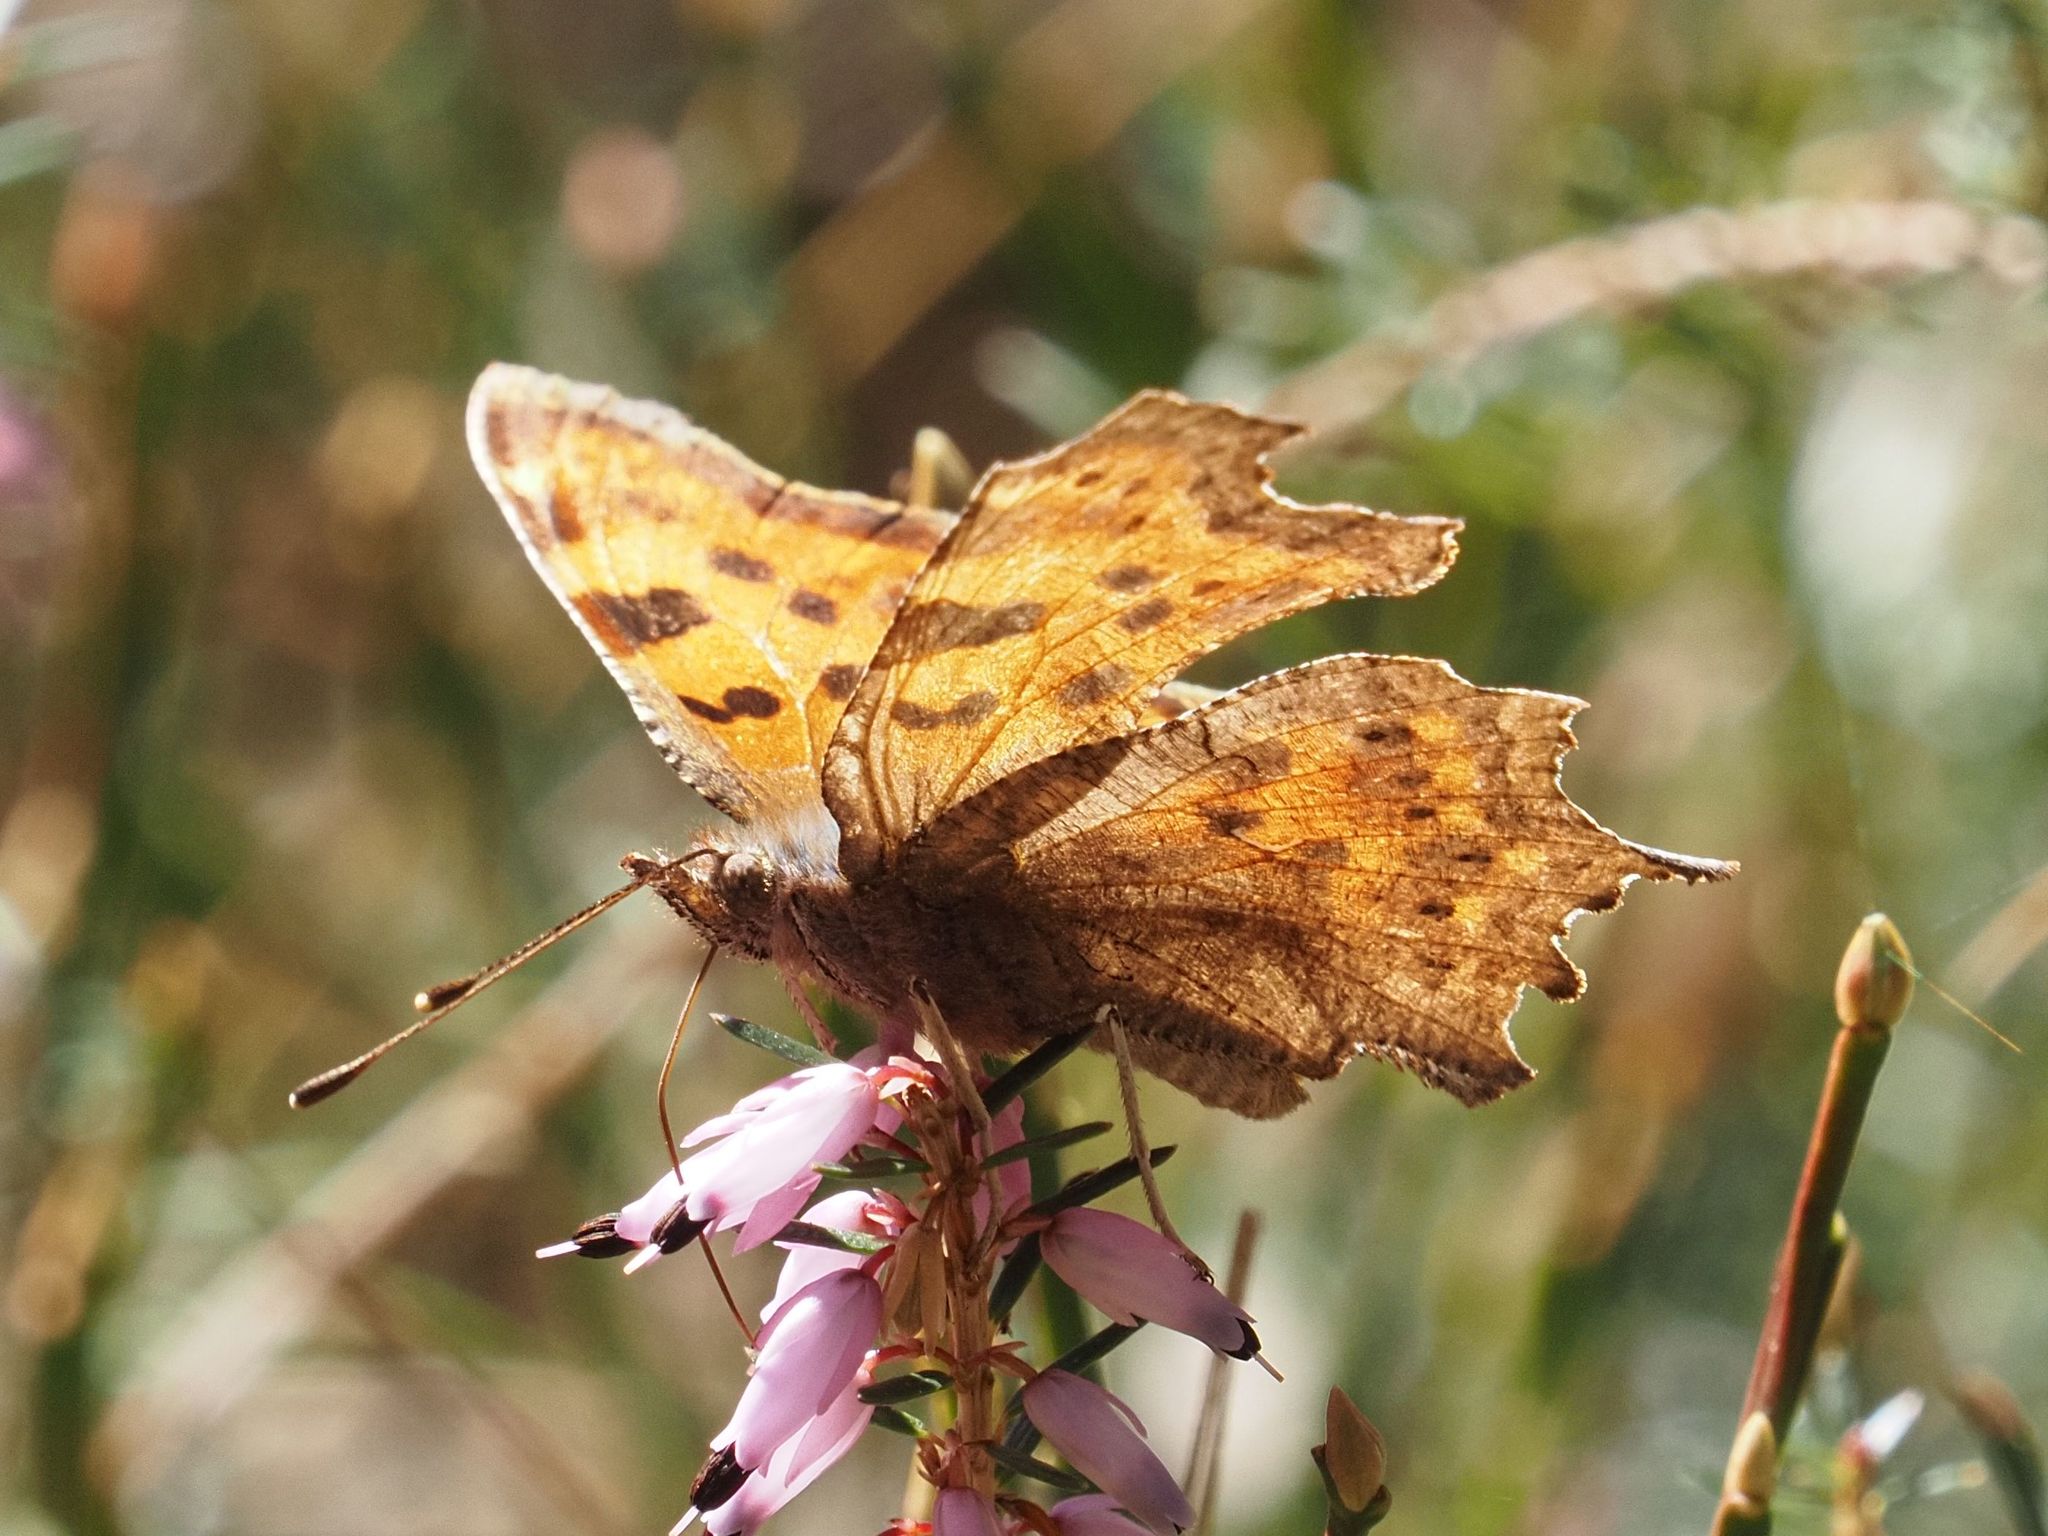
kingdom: Animalia
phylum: Arthropoda
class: Insecta
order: Lepidoptera
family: Nymphalidae
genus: Polygonia
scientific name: Polygonia c-album
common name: Comma
